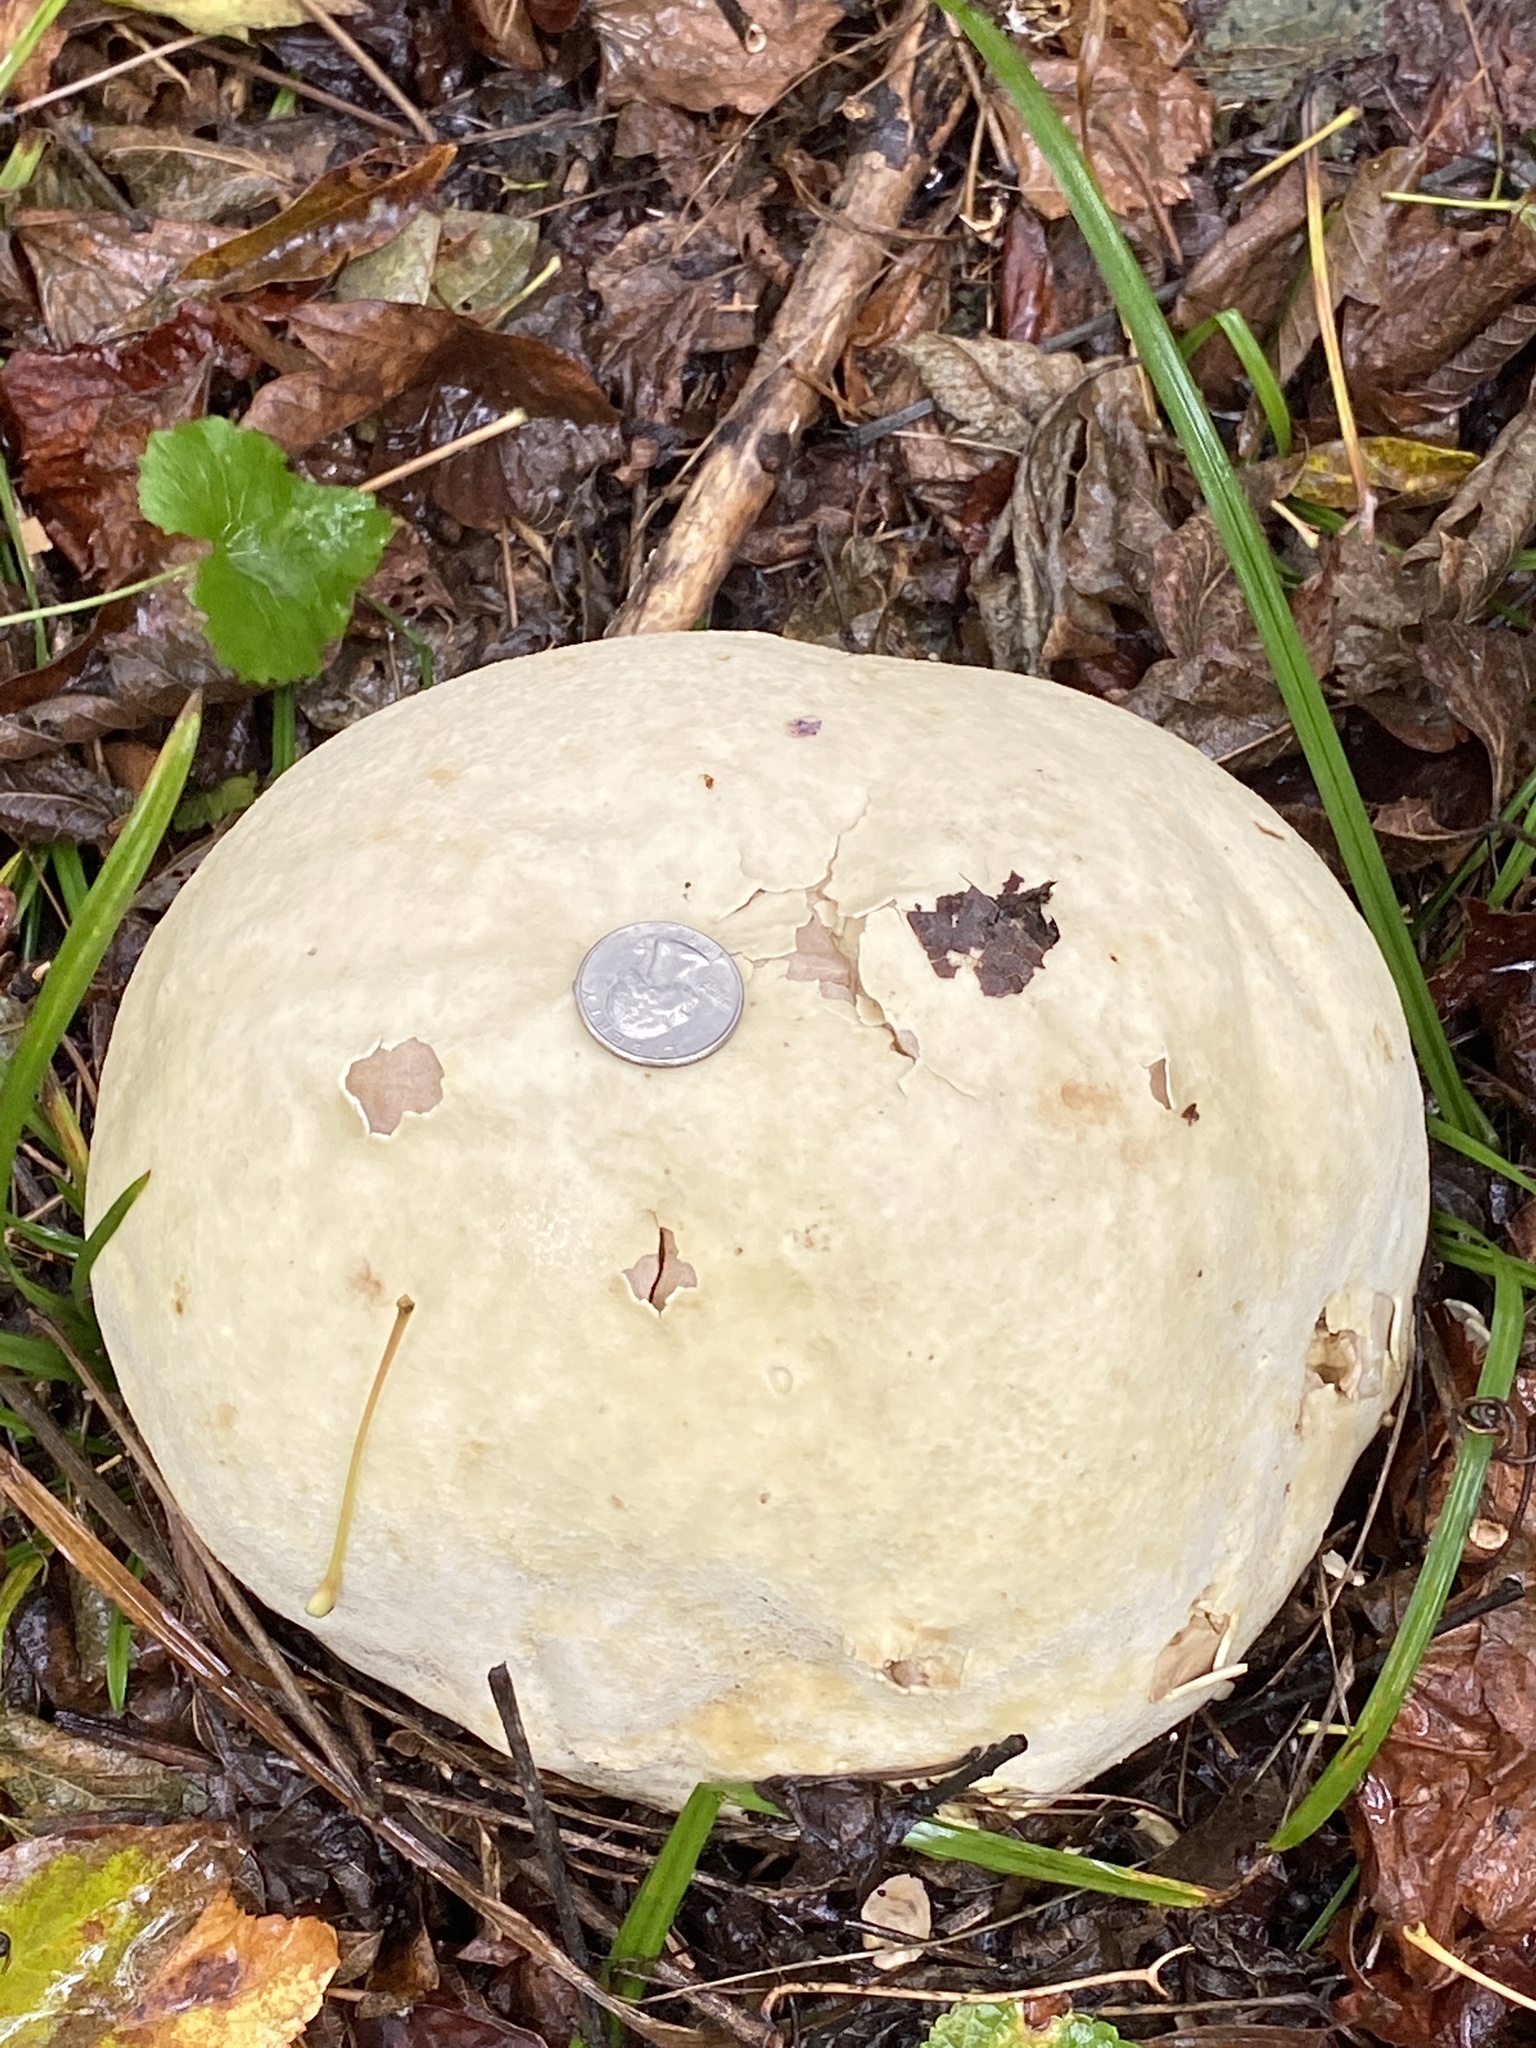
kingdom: Fungi
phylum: Basidiomycota
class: Agaricomycetes
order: Agaricales
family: Lycoperdaceae
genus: Calvatia
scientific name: Calvatia gigantea
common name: Giant puffball
